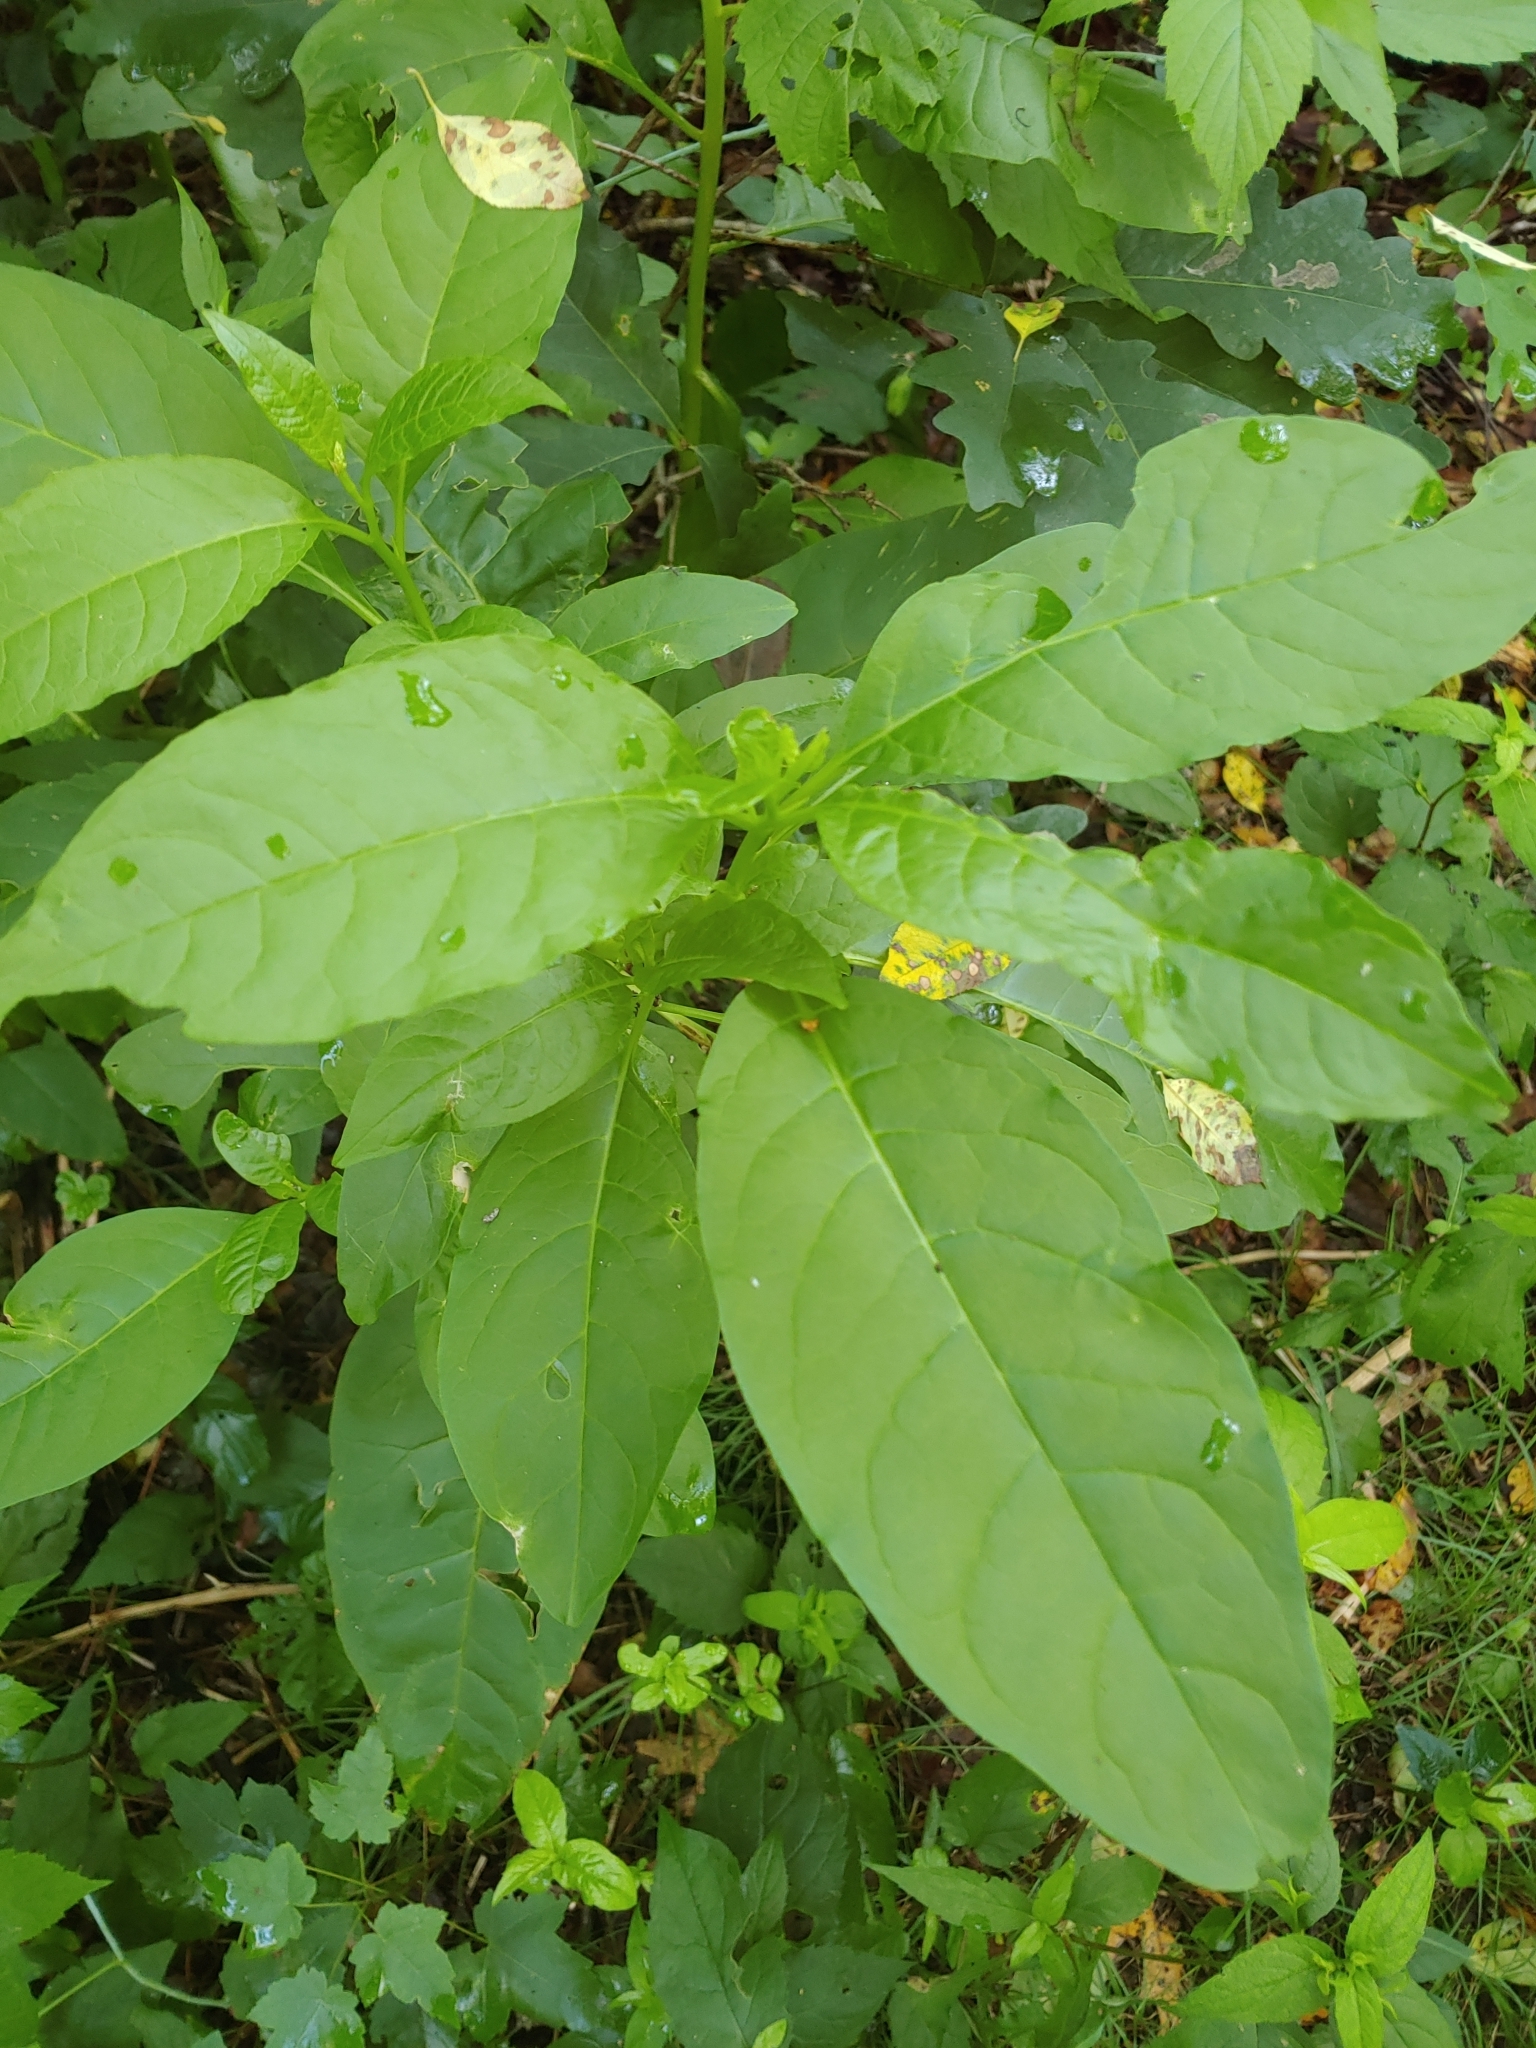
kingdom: Plantae
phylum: Tracheophyta
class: Magnoliopsida
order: Caryophyllales
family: Phytolaccaceae
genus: Phytolacca
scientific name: Phytolacca americana
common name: American pokeweed
